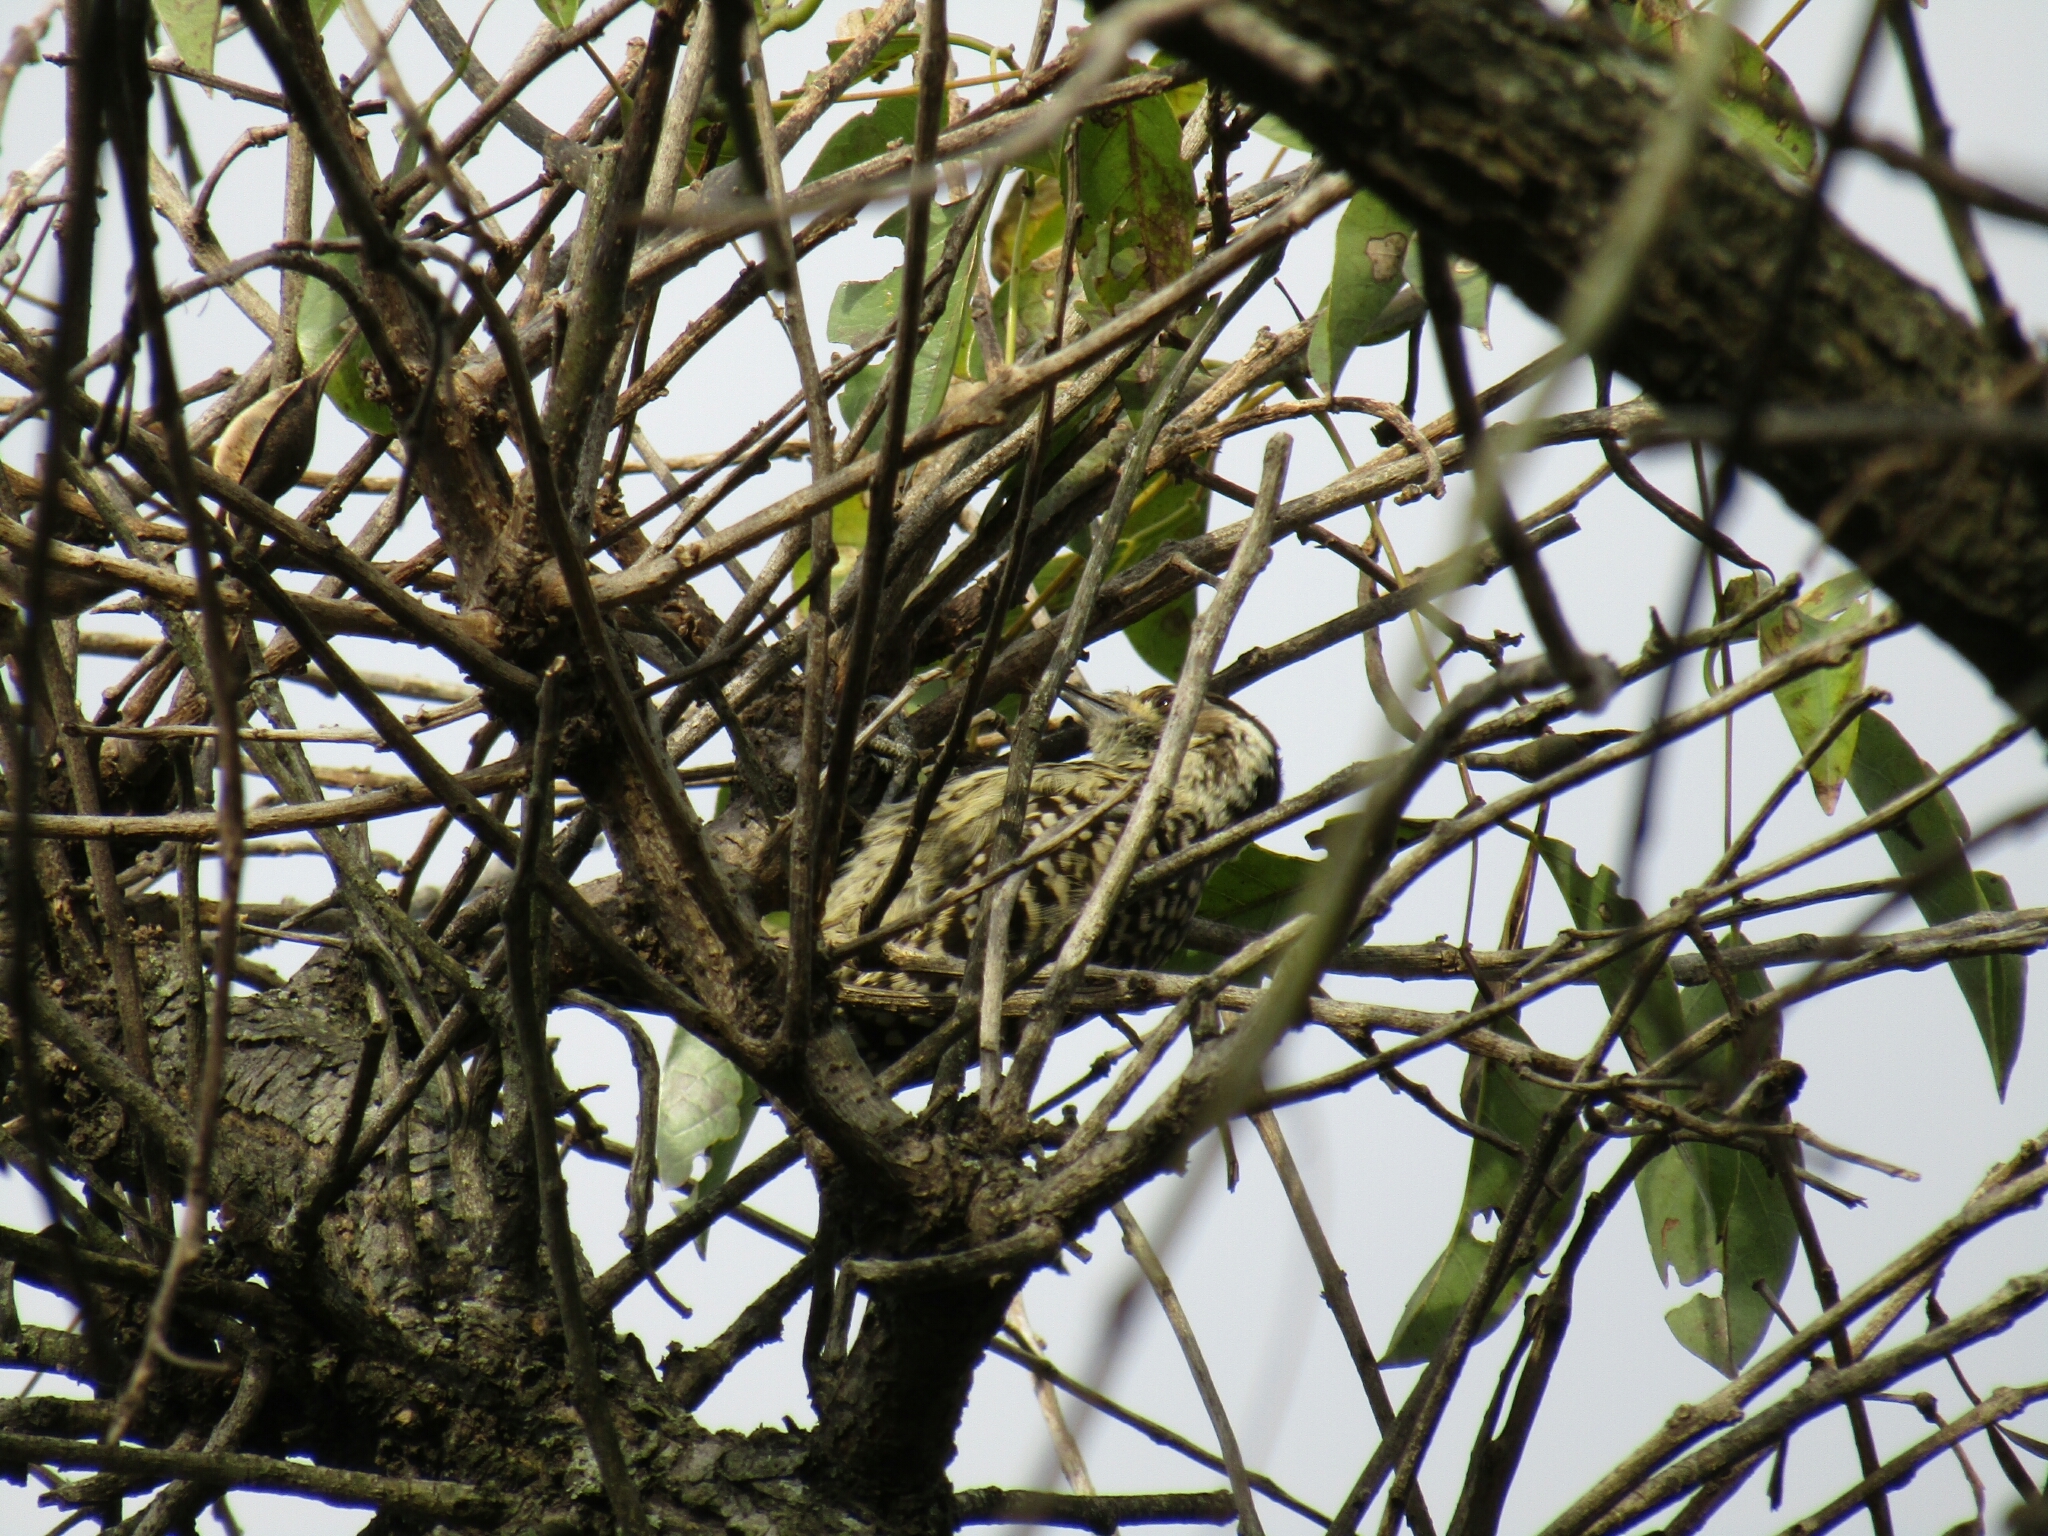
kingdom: Animalia
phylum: Chordata
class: Aves
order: Piciformes
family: Picidae
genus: Veniliornis
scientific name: Veniliornis mixtus
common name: Checkered woodpecker
